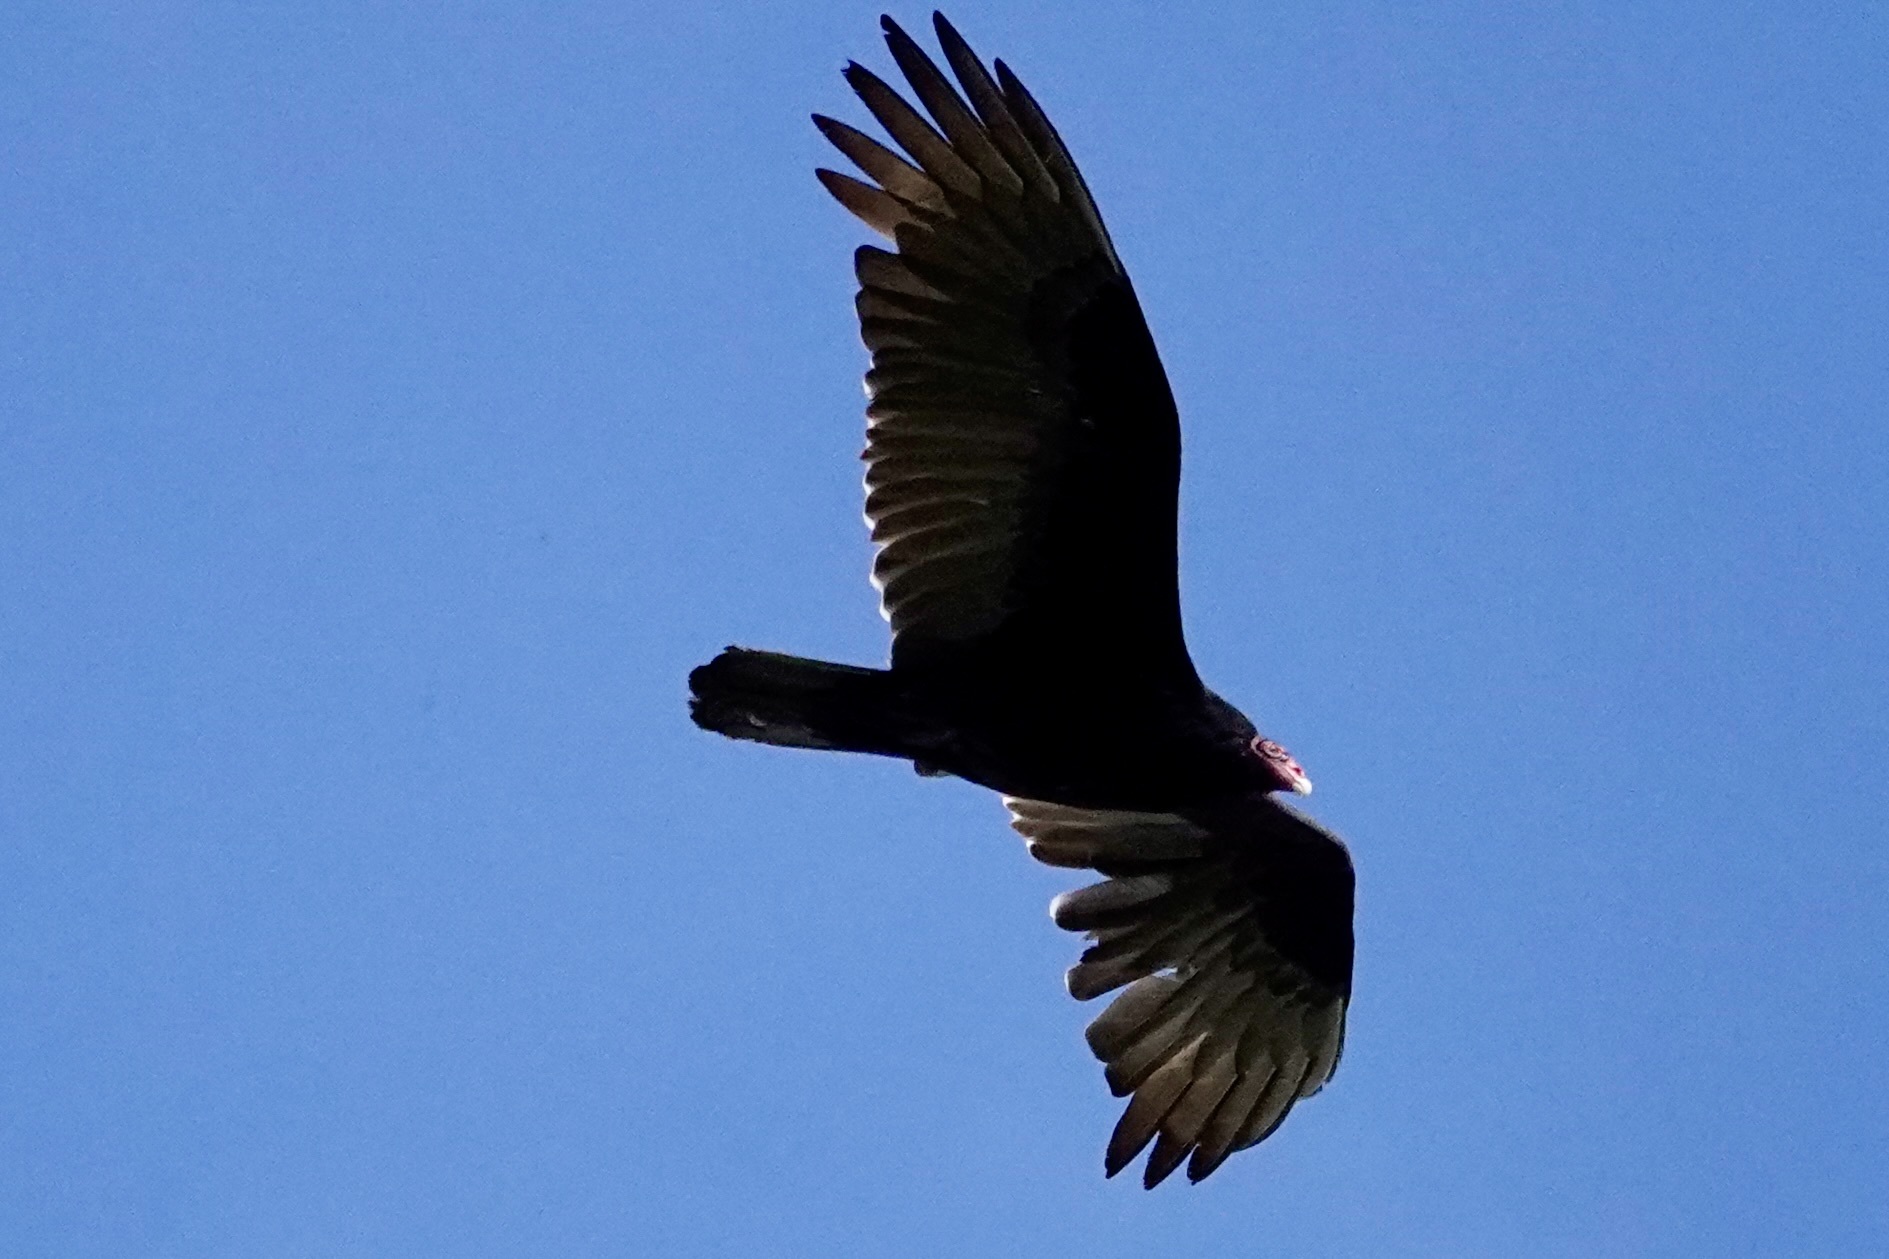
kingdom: Animalia
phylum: Chordata
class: Aves
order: Accipitriformes
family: Cathartidae
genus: Cathartes
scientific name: Cathartes aura
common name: Turkey vulture
